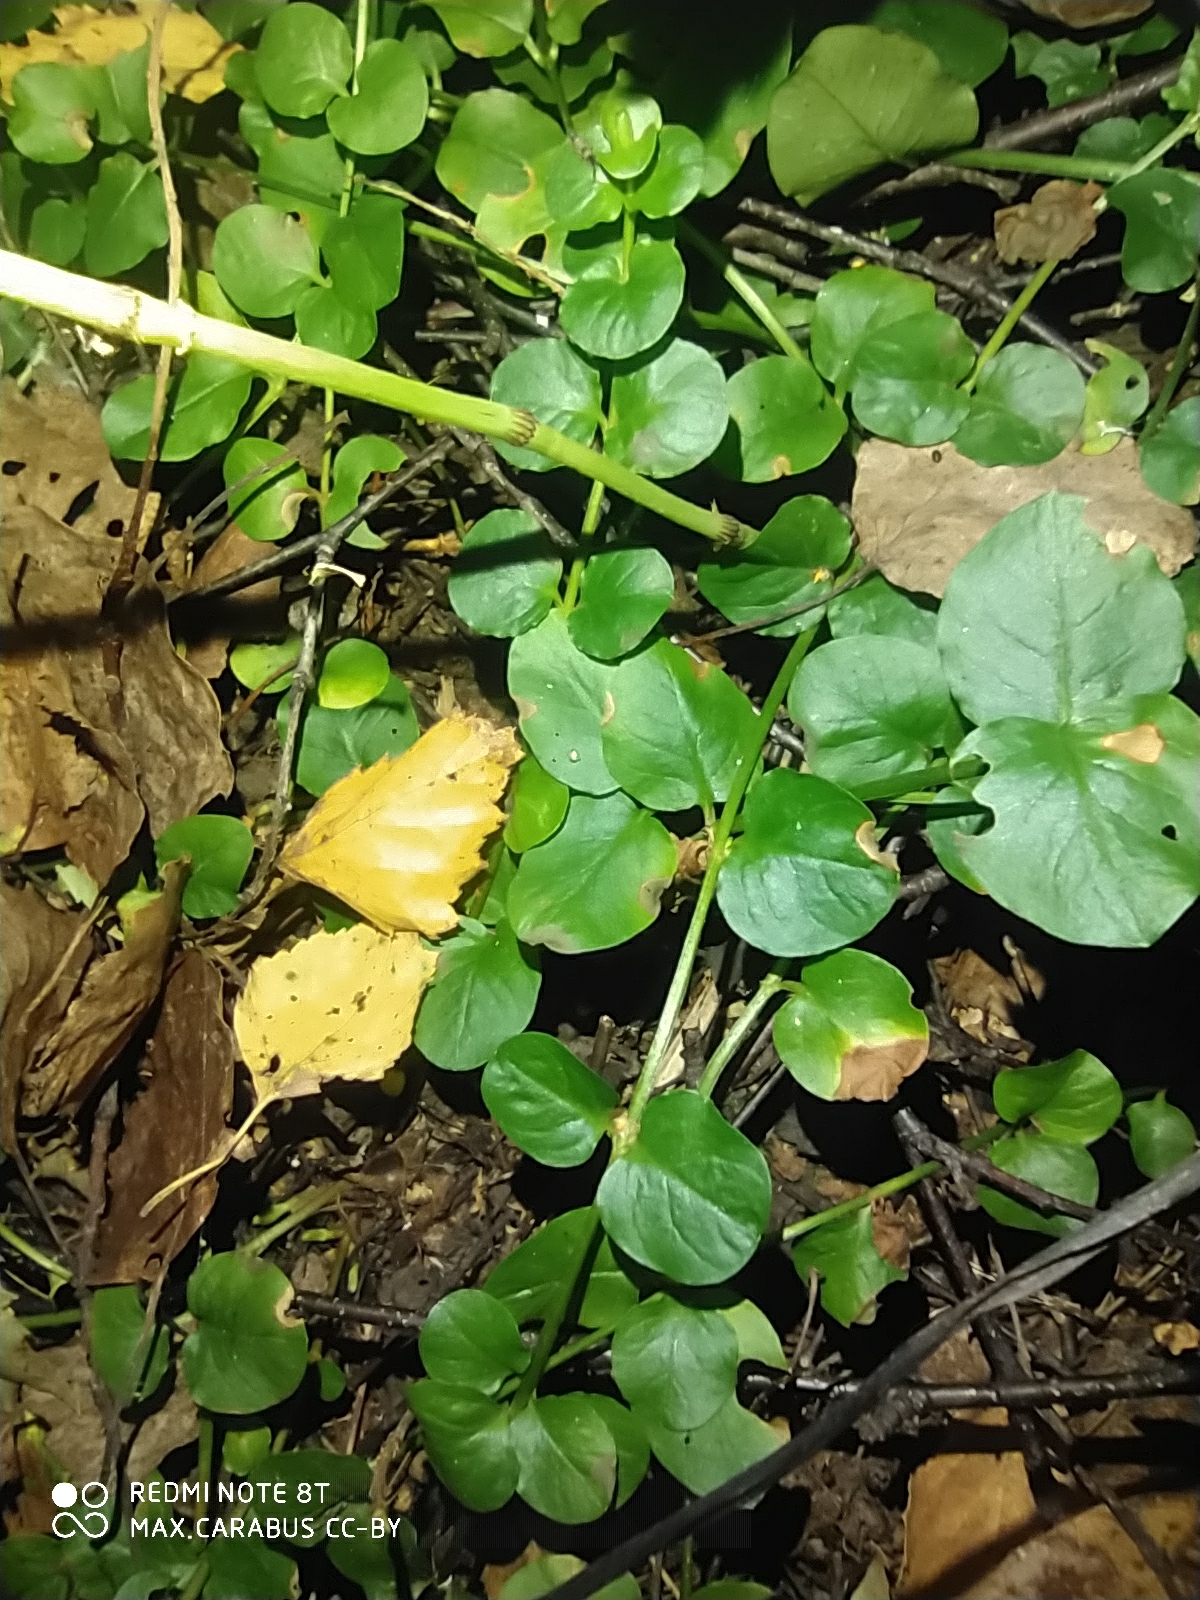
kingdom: Plantae
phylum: Tracheophyta
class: Magnoliopsida
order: Ericales
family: Primulaceae
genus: Lysimachia
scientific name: Lysimachia nummularia
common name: Moneywort
